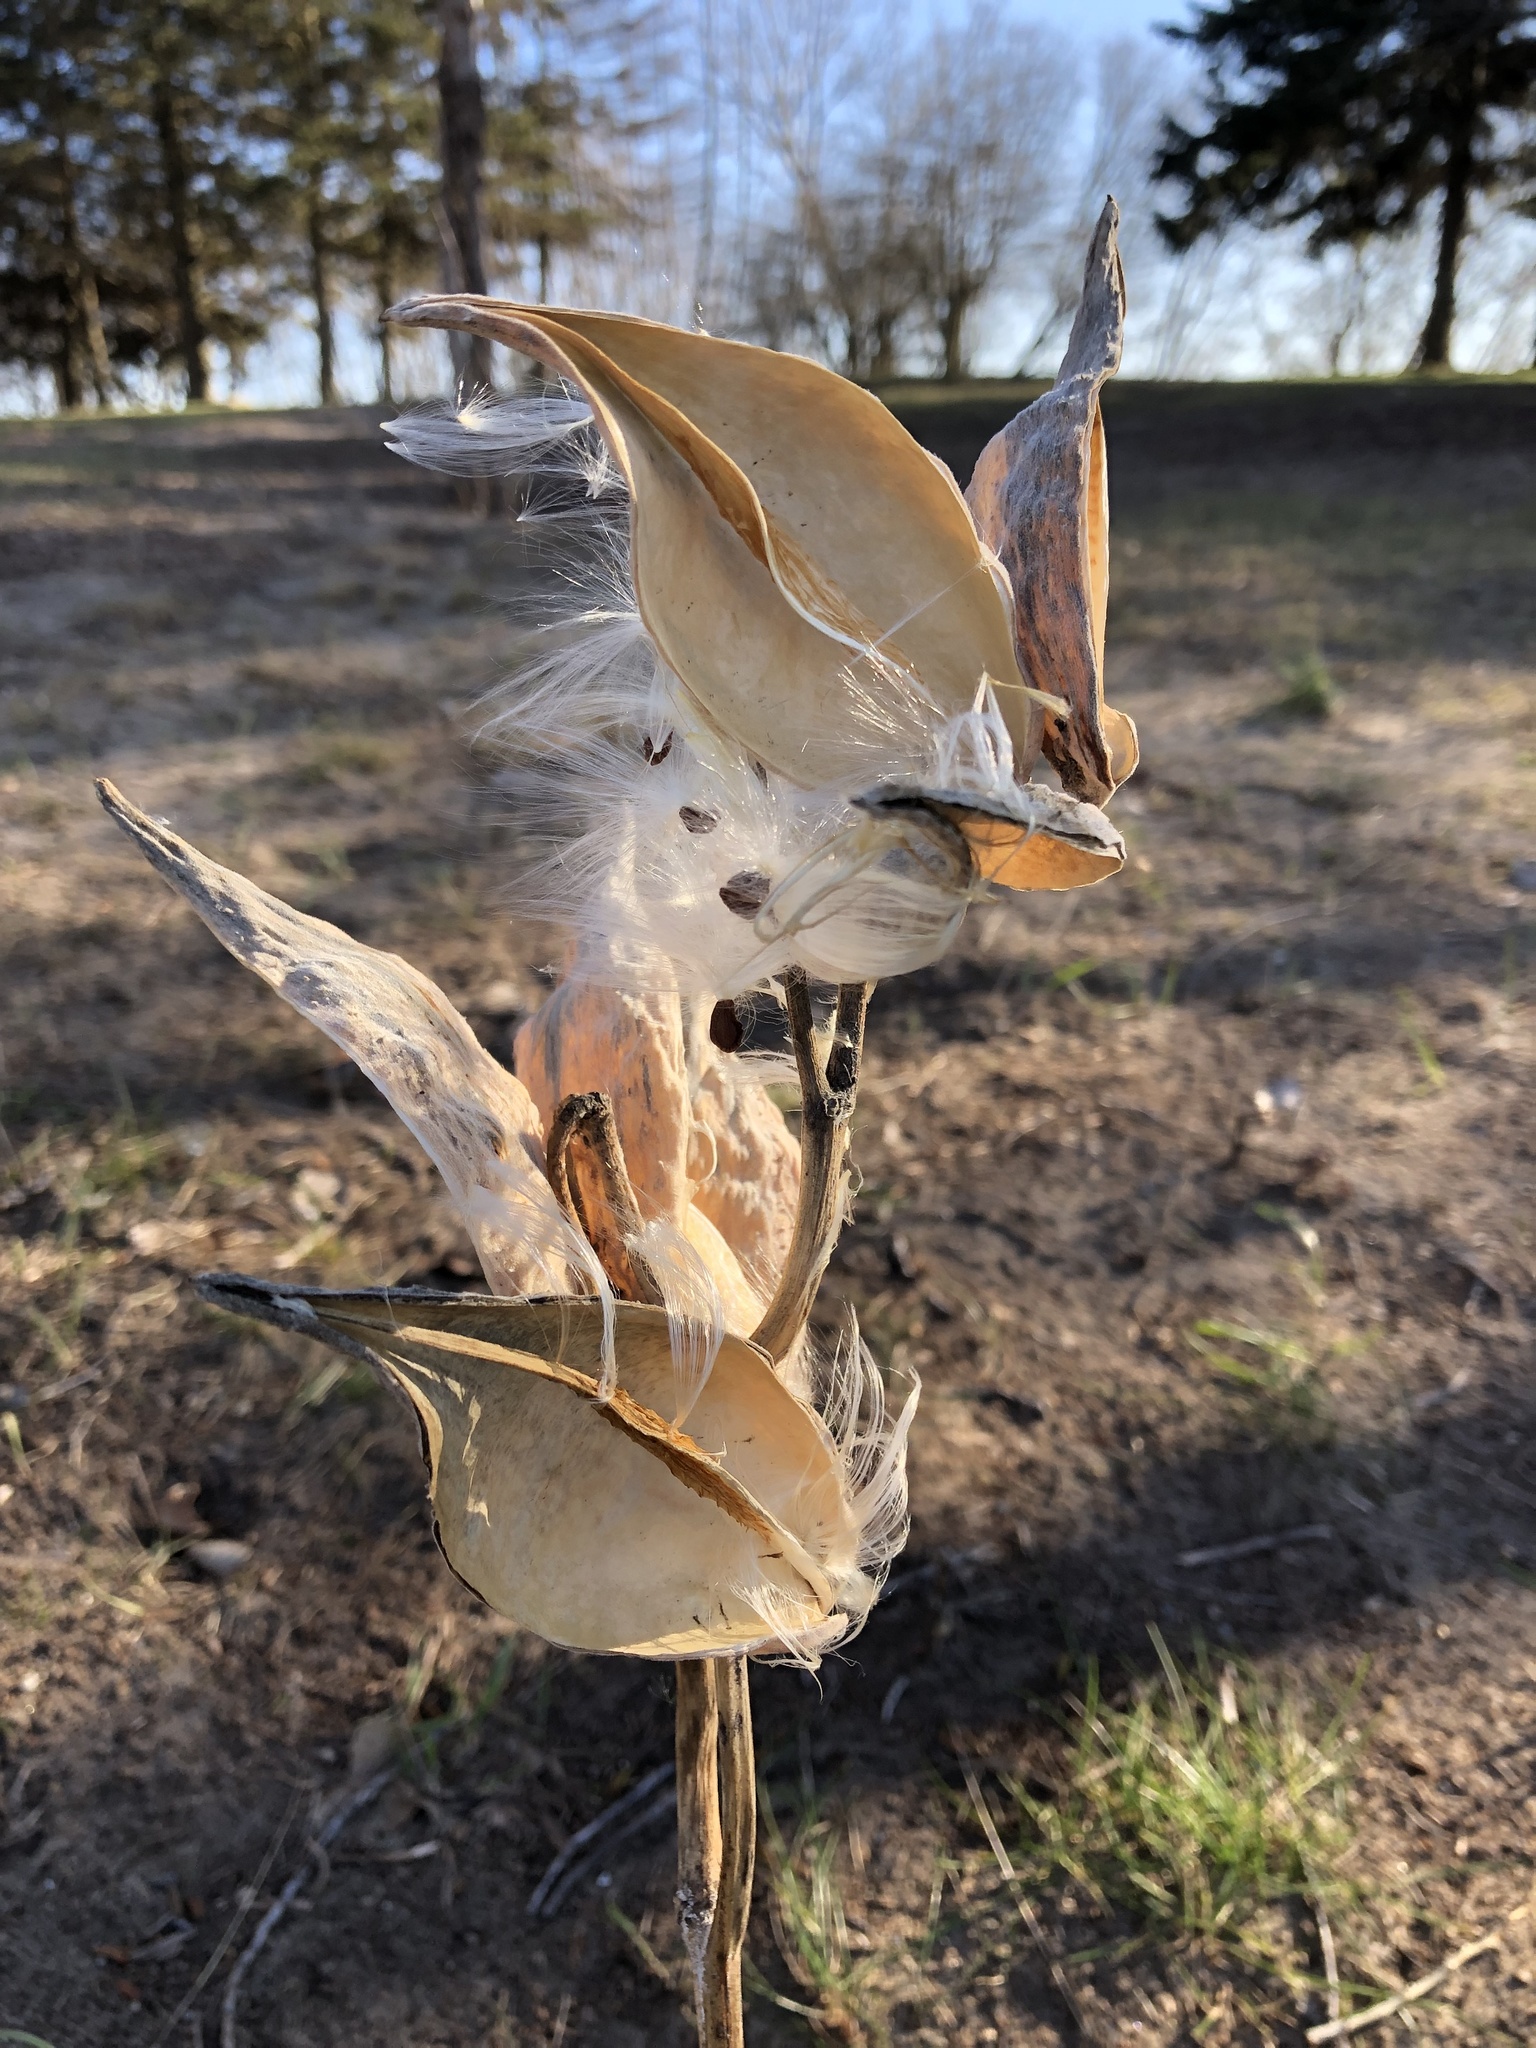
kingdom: Plantae
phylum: Tracheophyta
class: Magnoliopsida
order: Gentianales
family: Apocynaceae
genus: Asclepias
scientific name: Asclepias syriaca
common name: Common milkweed
